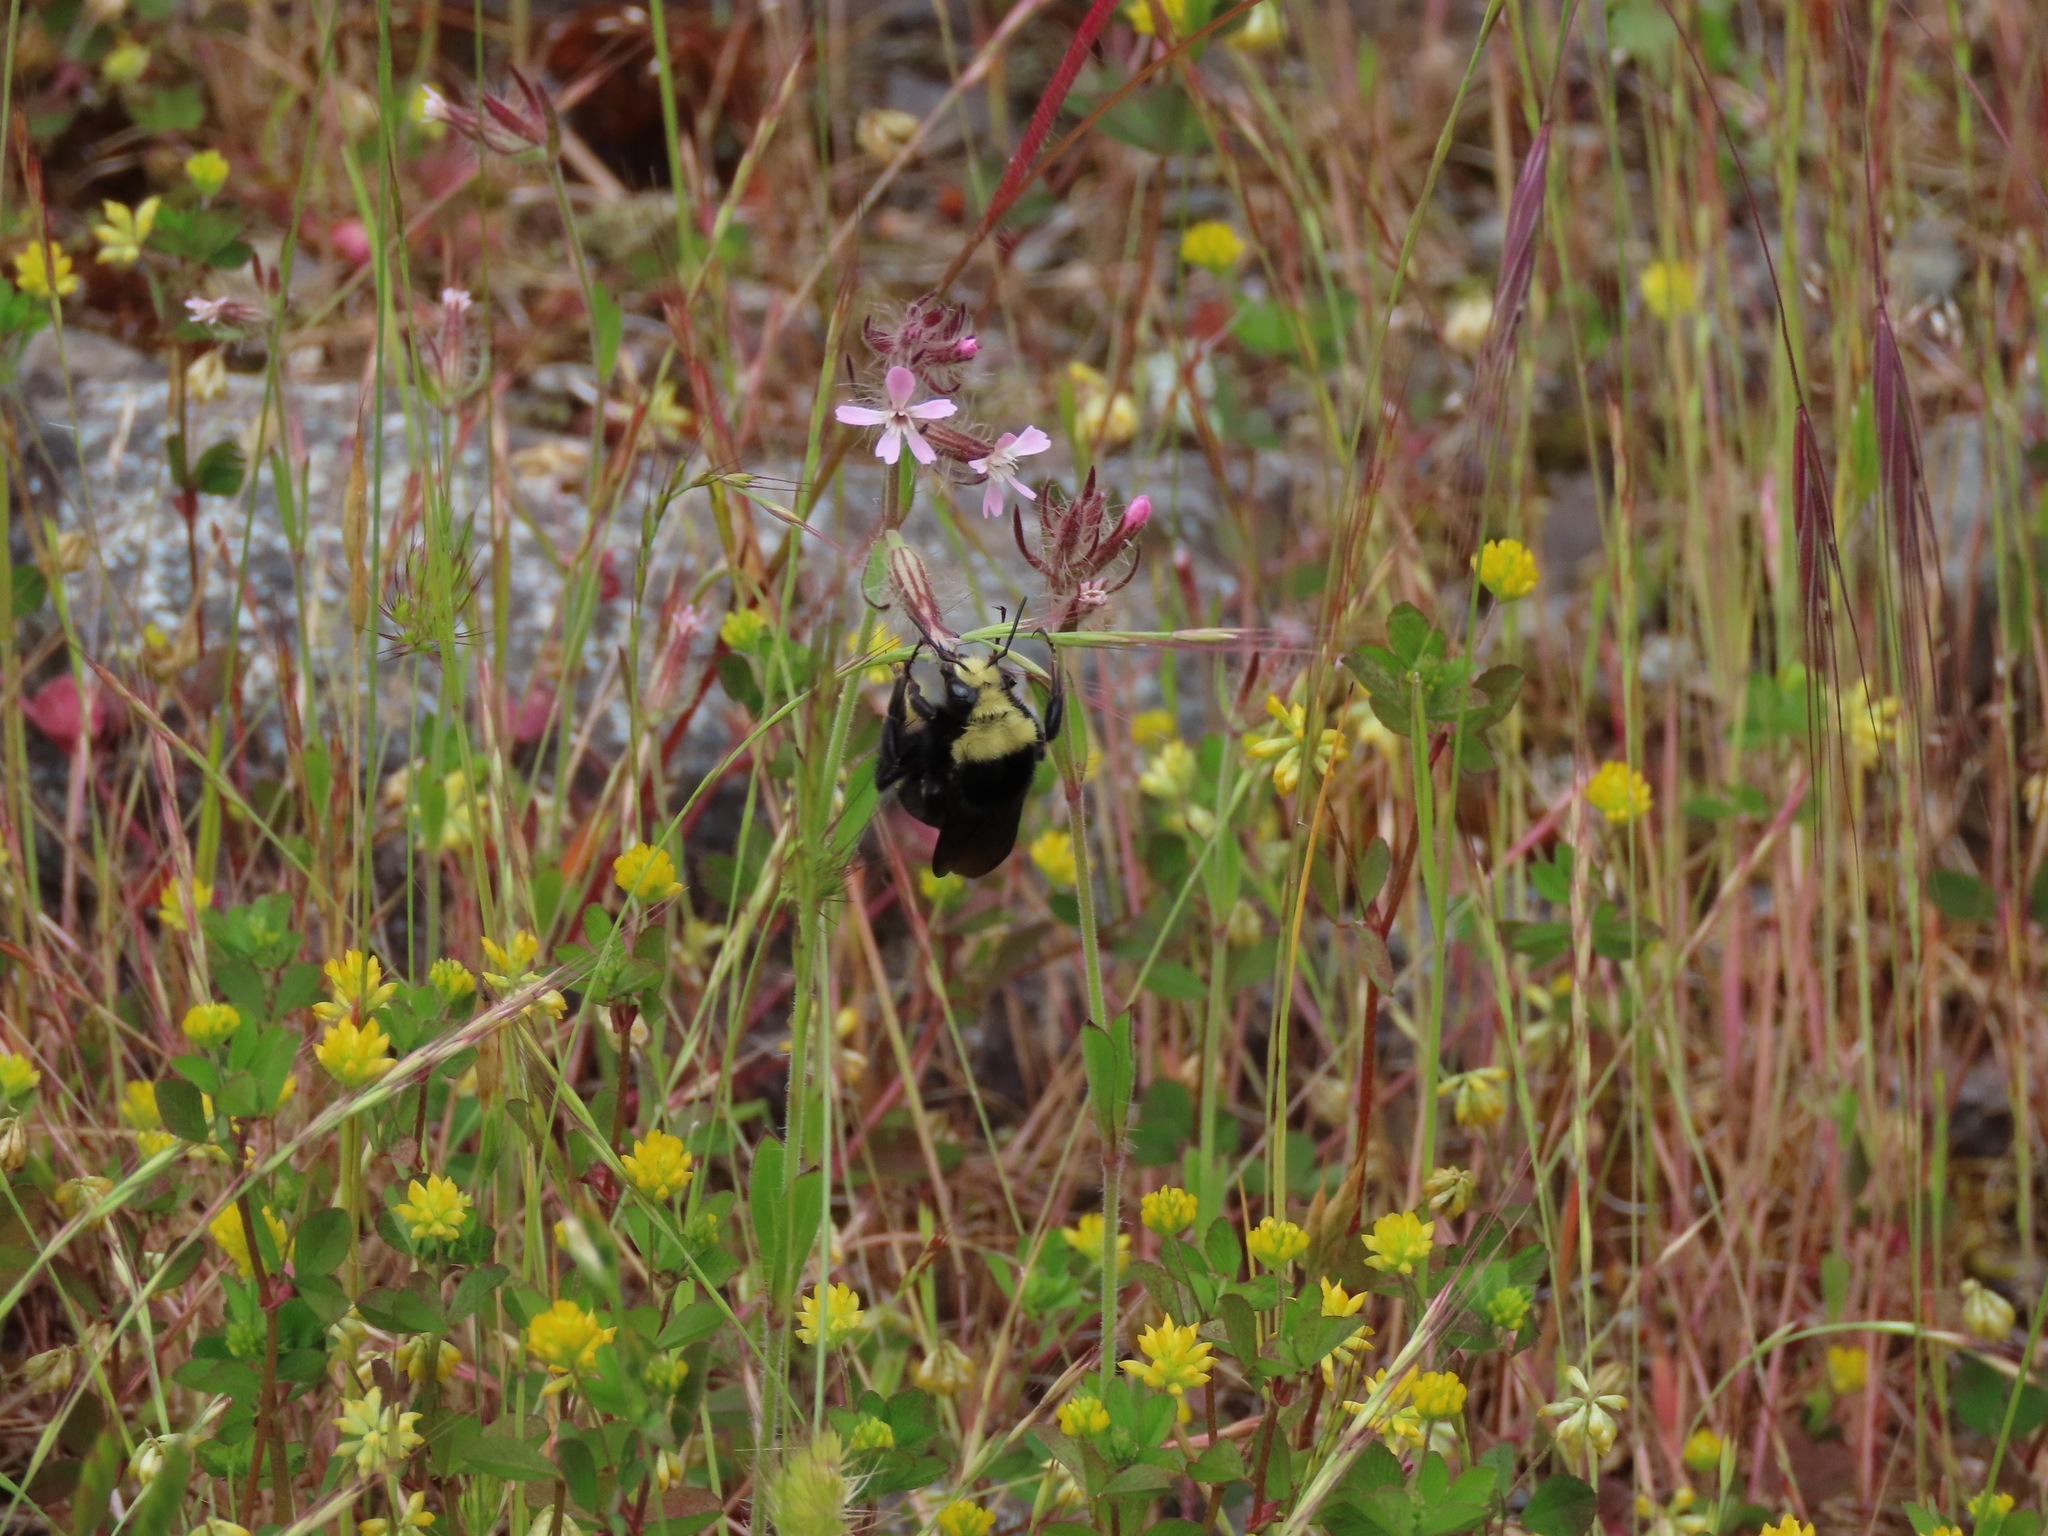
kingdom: Animalia
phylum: Arthropoda
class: Insecta
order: Hymenoptera
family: Apidae
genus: Bombus
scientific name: Bombus vosnesenskii
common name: Vosnesensky bumble bee
